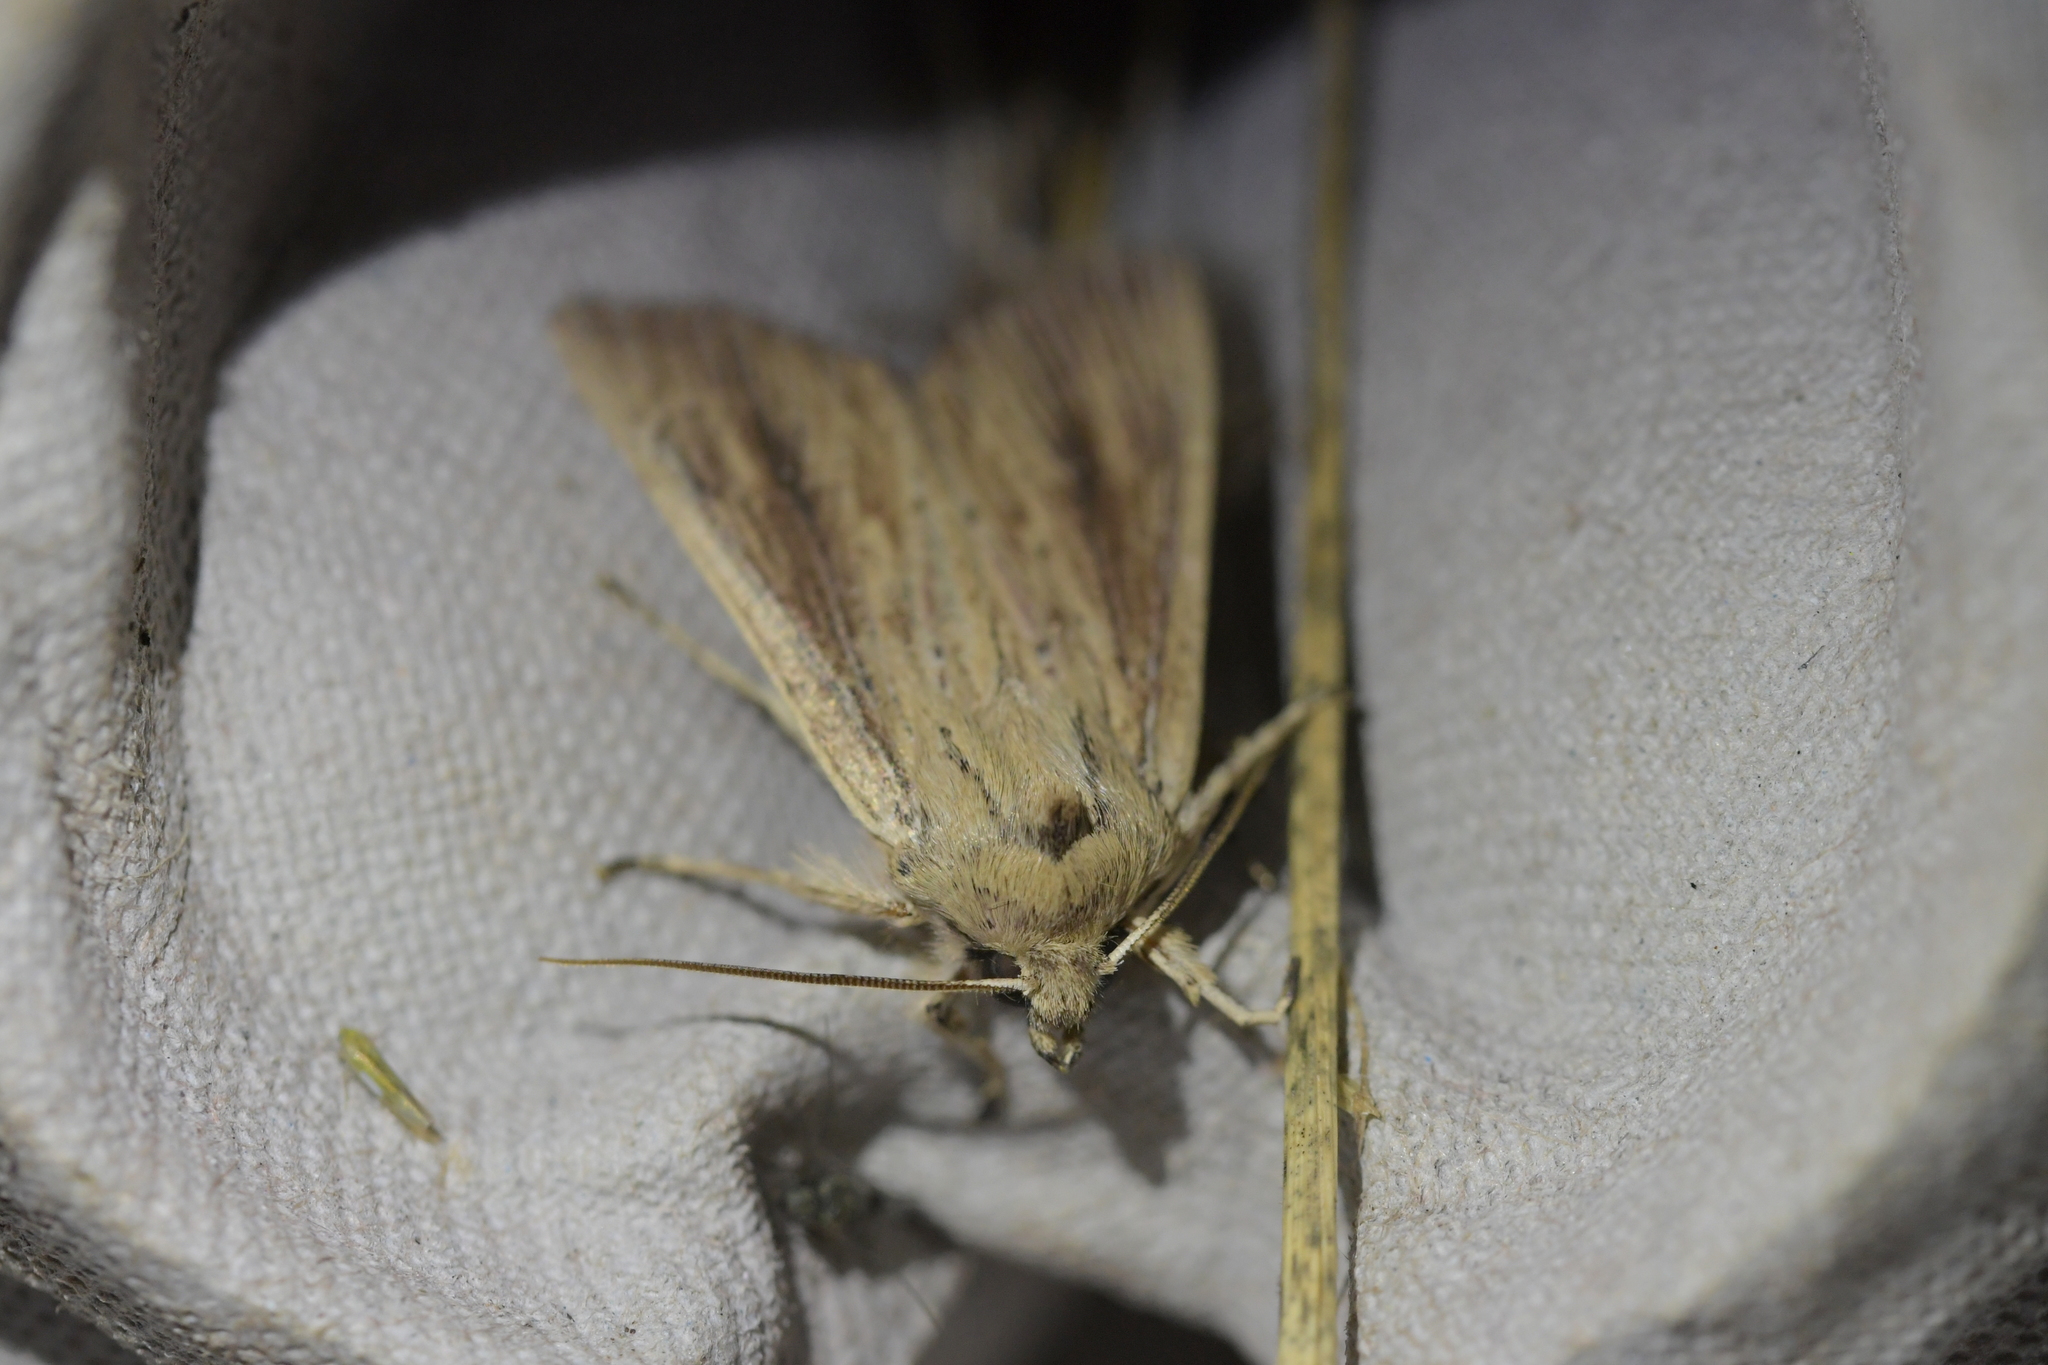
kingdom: Animalia
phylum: Arthropoda
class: Insecta
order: Lepidoptera
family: Noctuidae
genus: Ichneutica
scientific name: Ichneutica arotis
